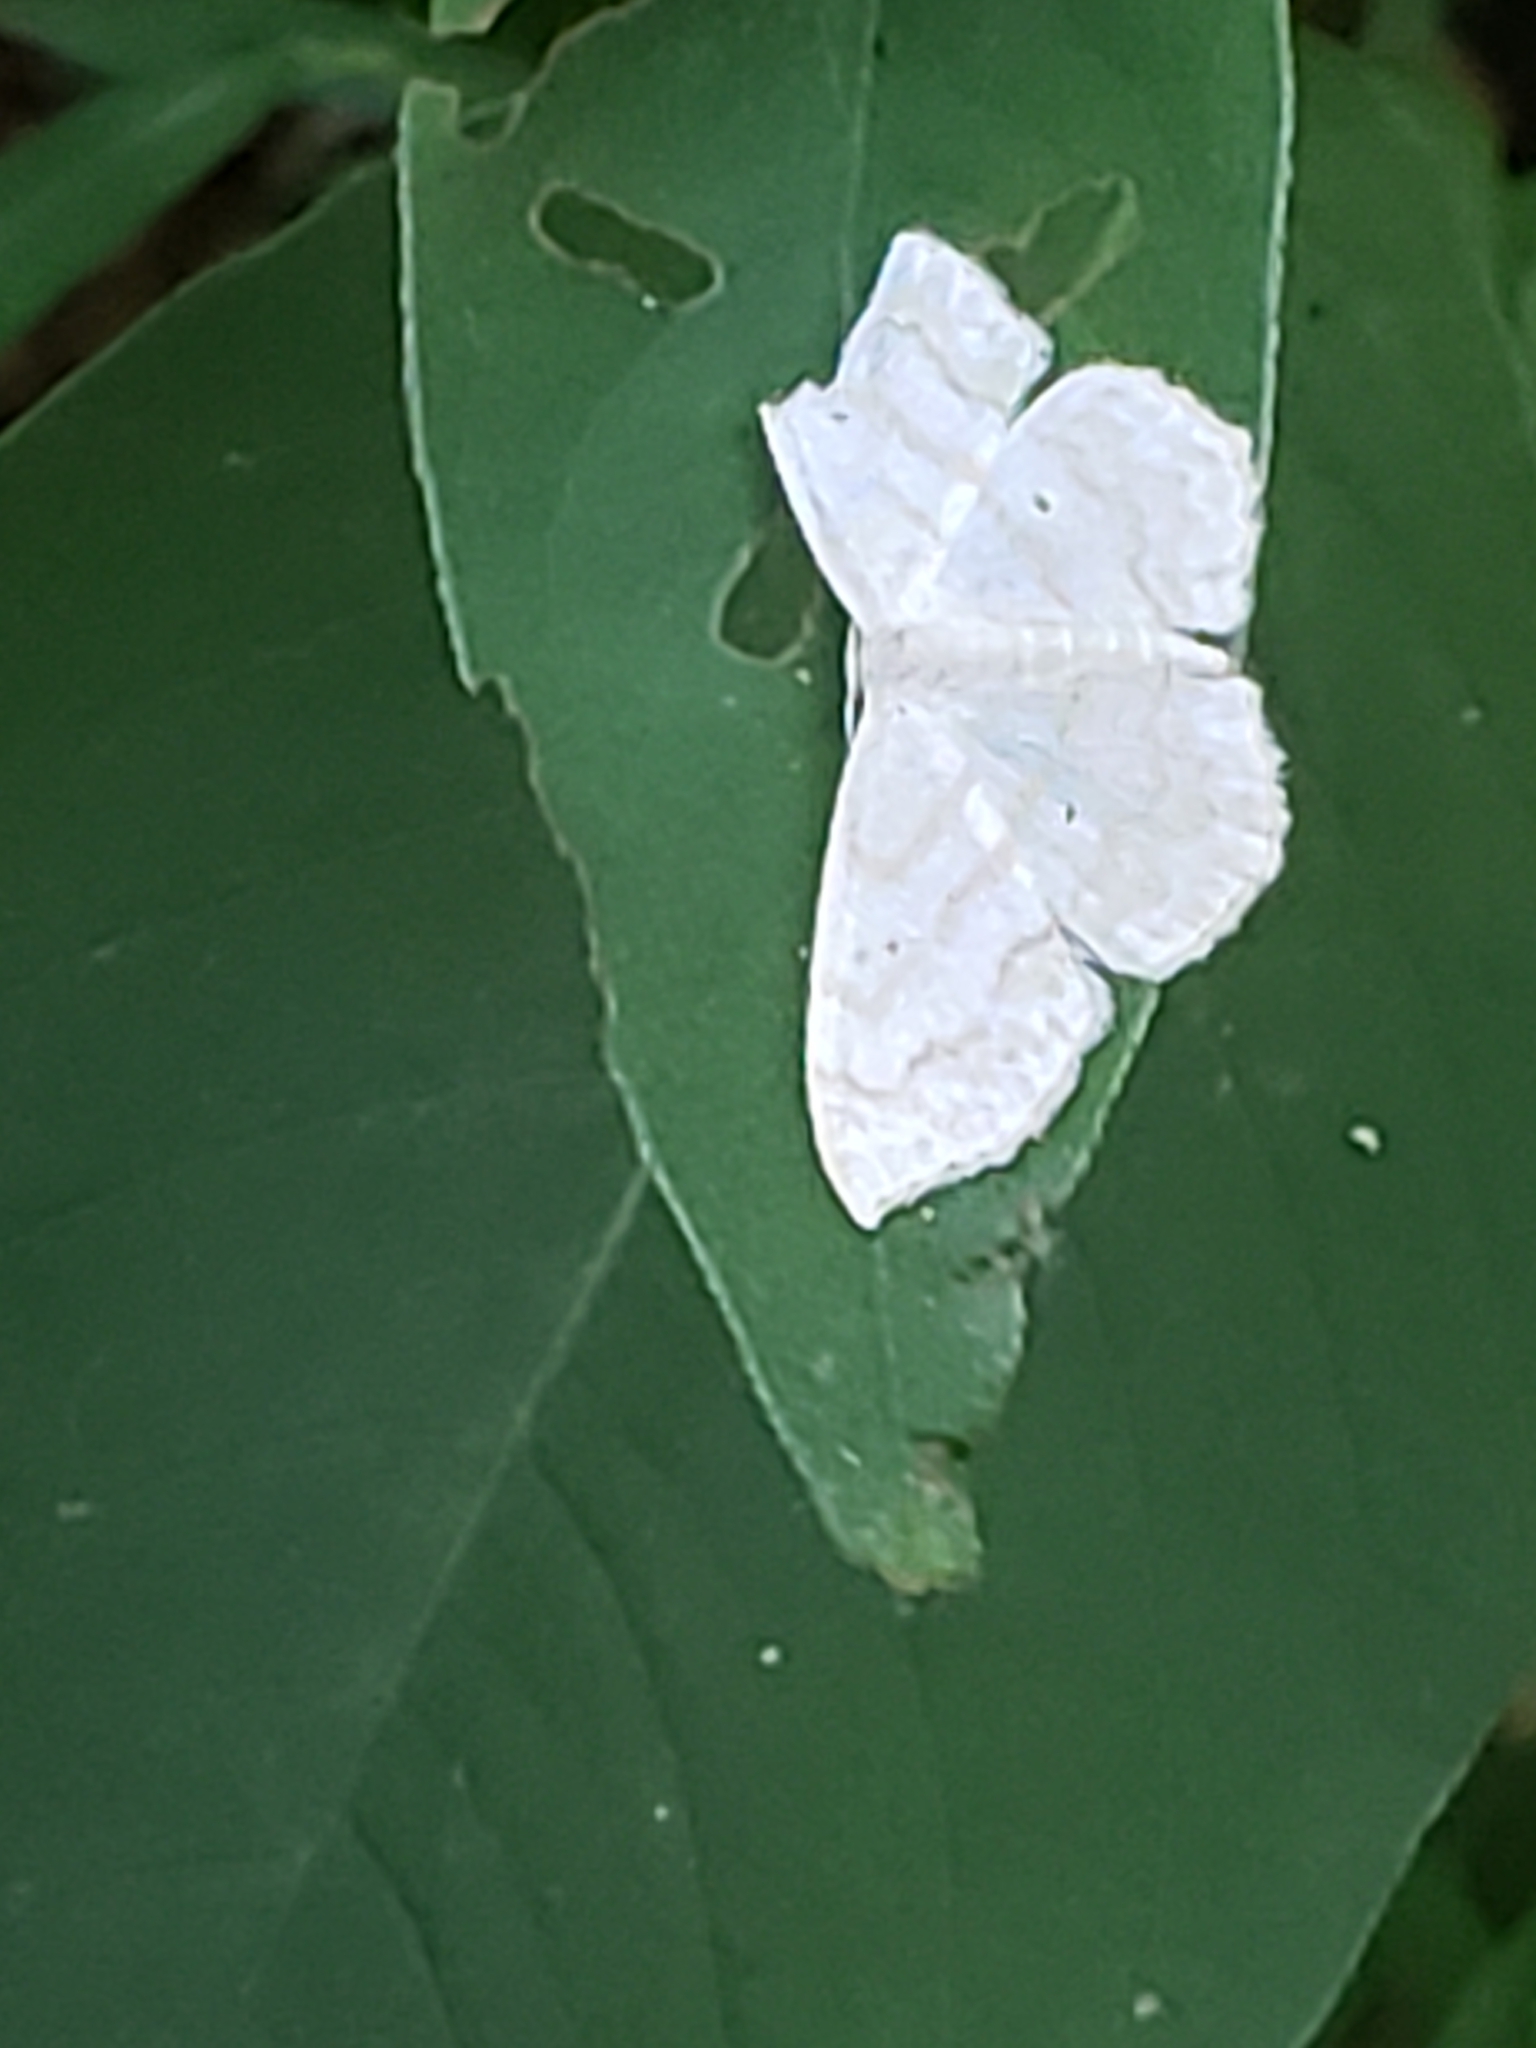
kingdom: Animalia
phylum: Arthropoda
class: Insecta
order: Lepidoptera
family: Geometridae
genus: Scopula
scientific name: Scopula limboundata
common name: Large lace border
